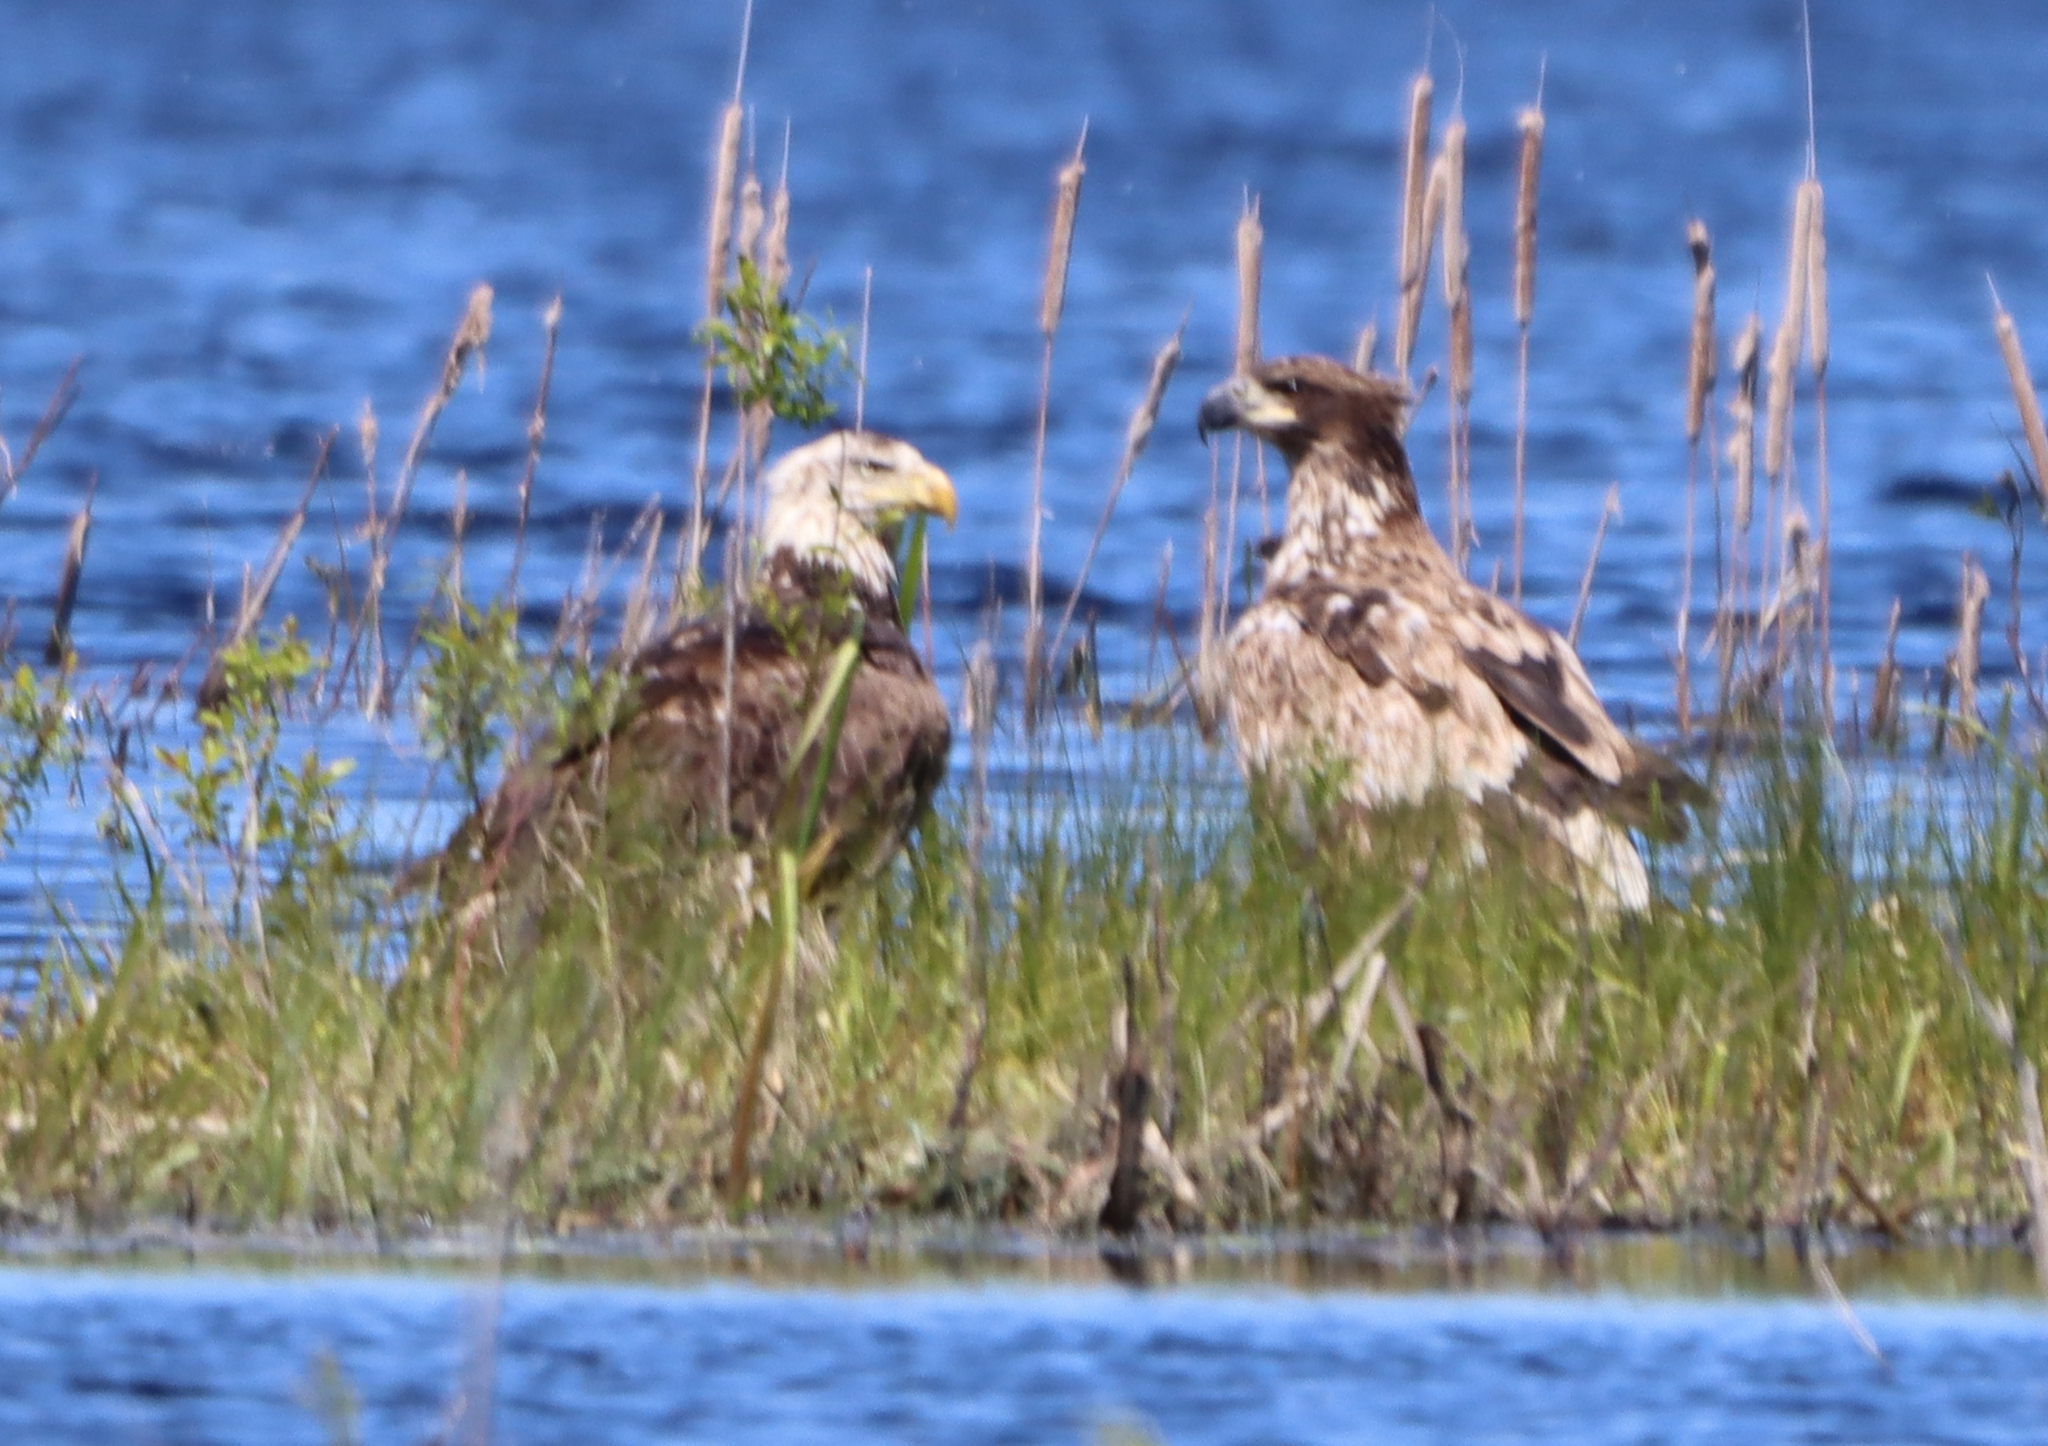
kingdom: Animalia
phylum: Chordata
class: Aves
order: Accipitriformes
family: Accipitridae
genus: Haliaeetus
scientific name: Haliaeetus leucocephalus
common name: Bald eagle
